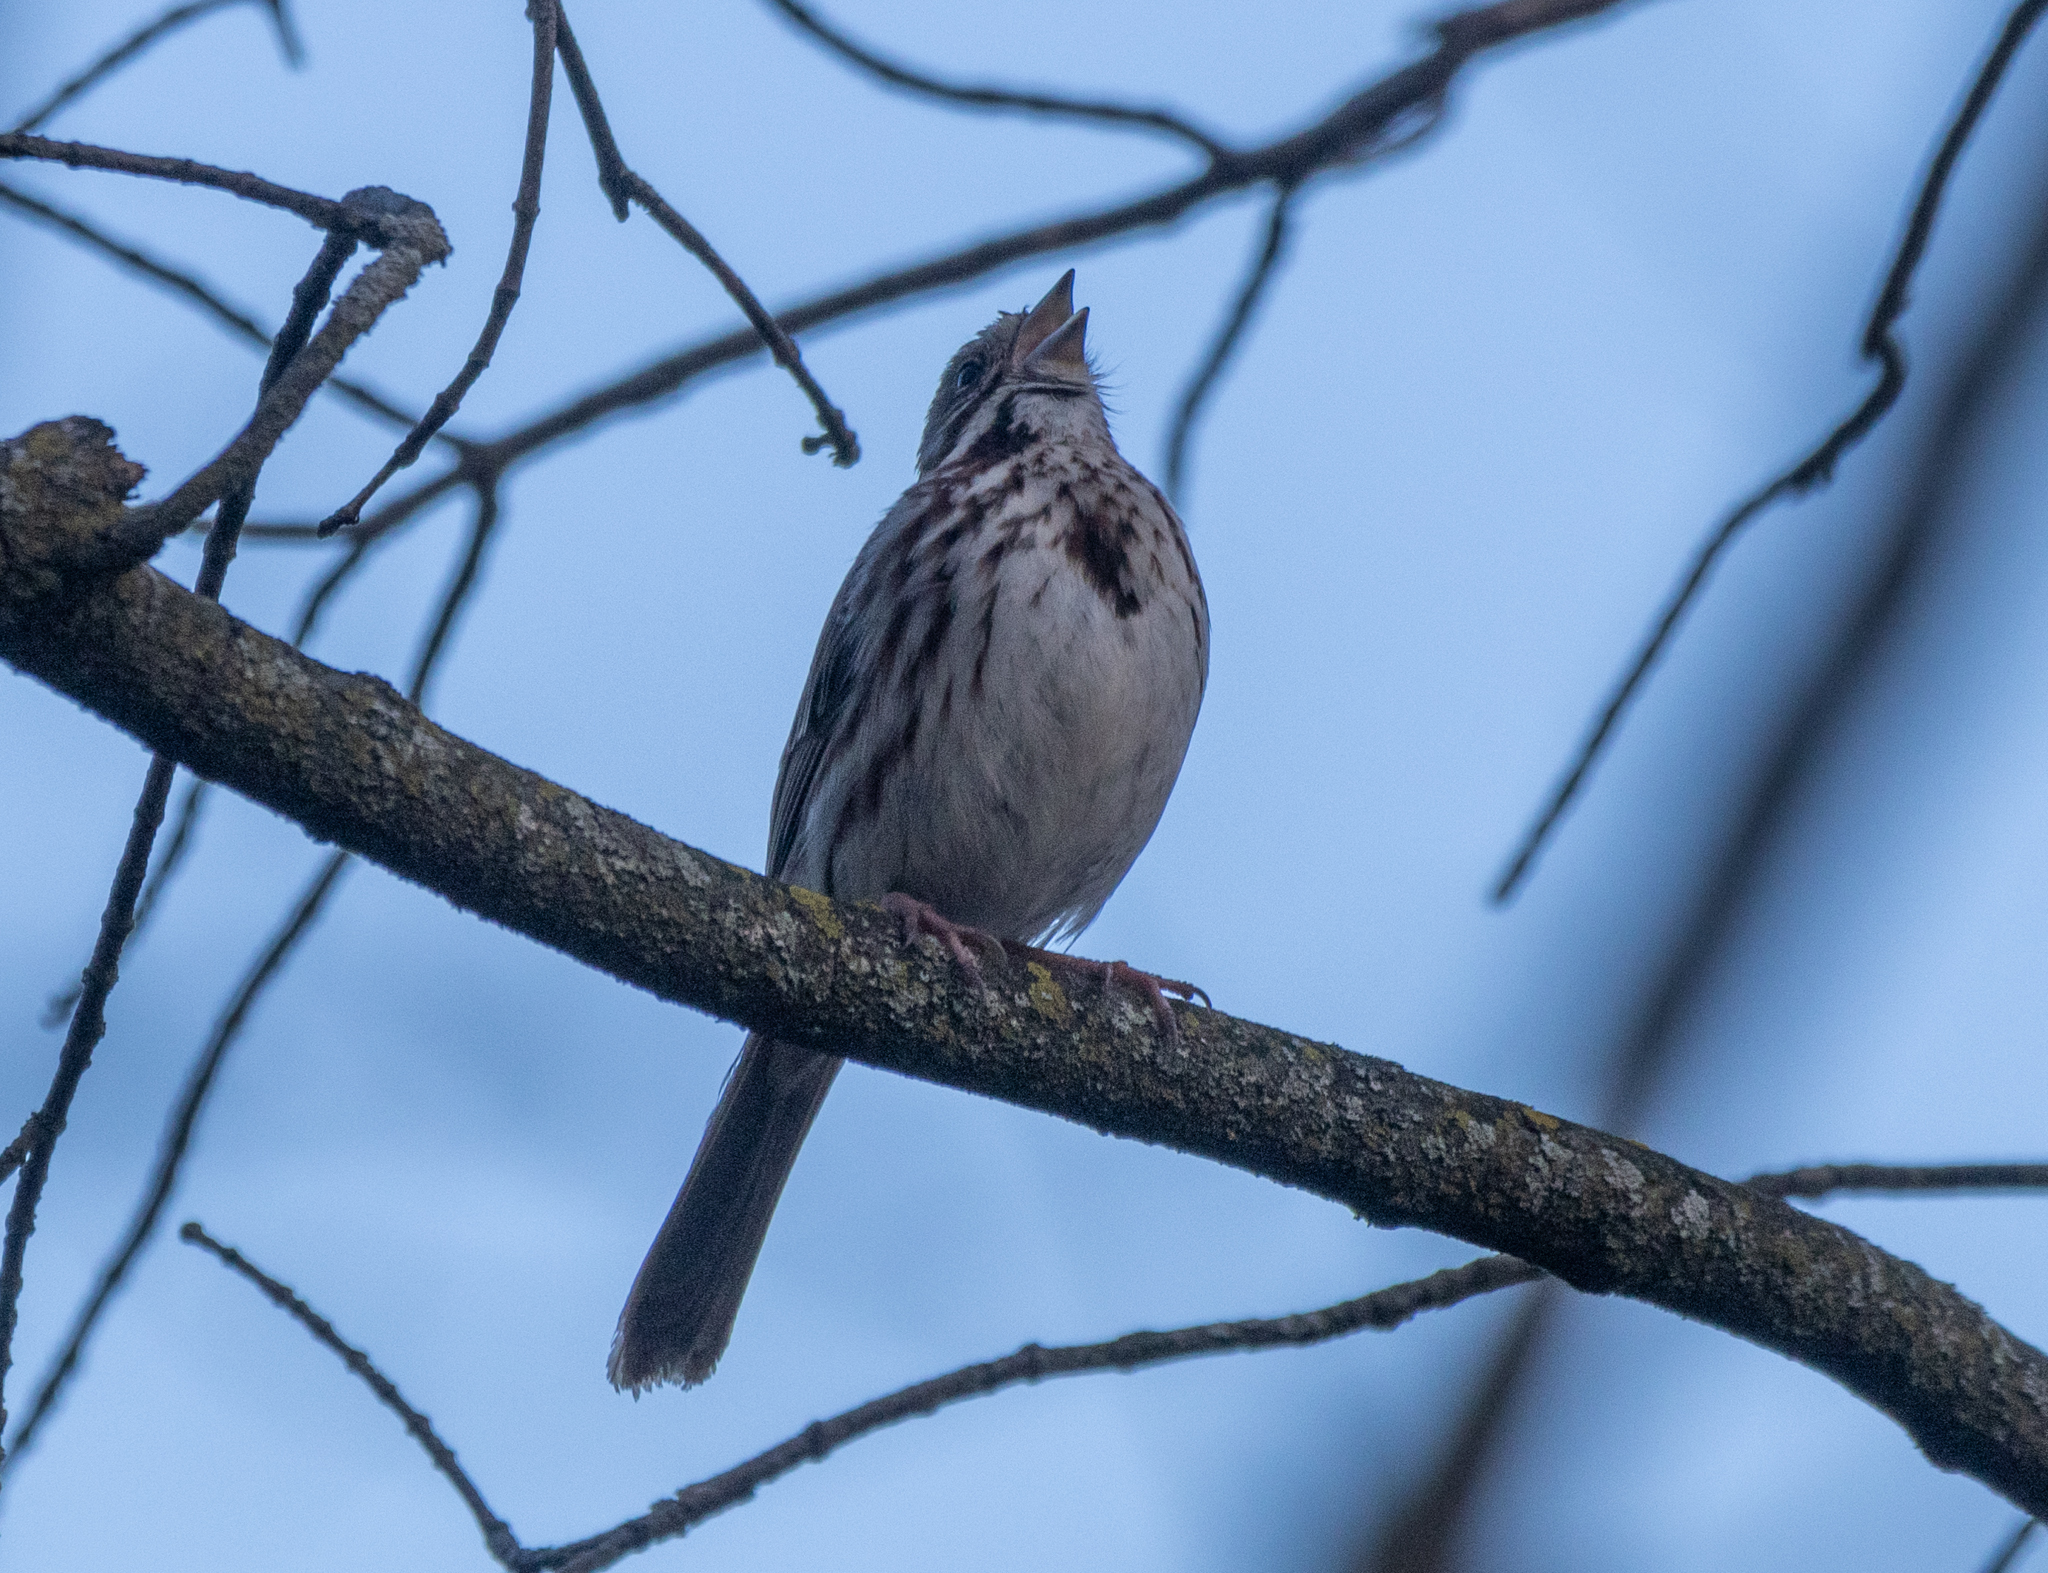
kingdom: Animalia
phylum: Chordata
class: Aves
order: Passeriformes
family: Passerellidae
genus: Melospiza
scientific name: Melospiza melodia
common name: Song sparrow
